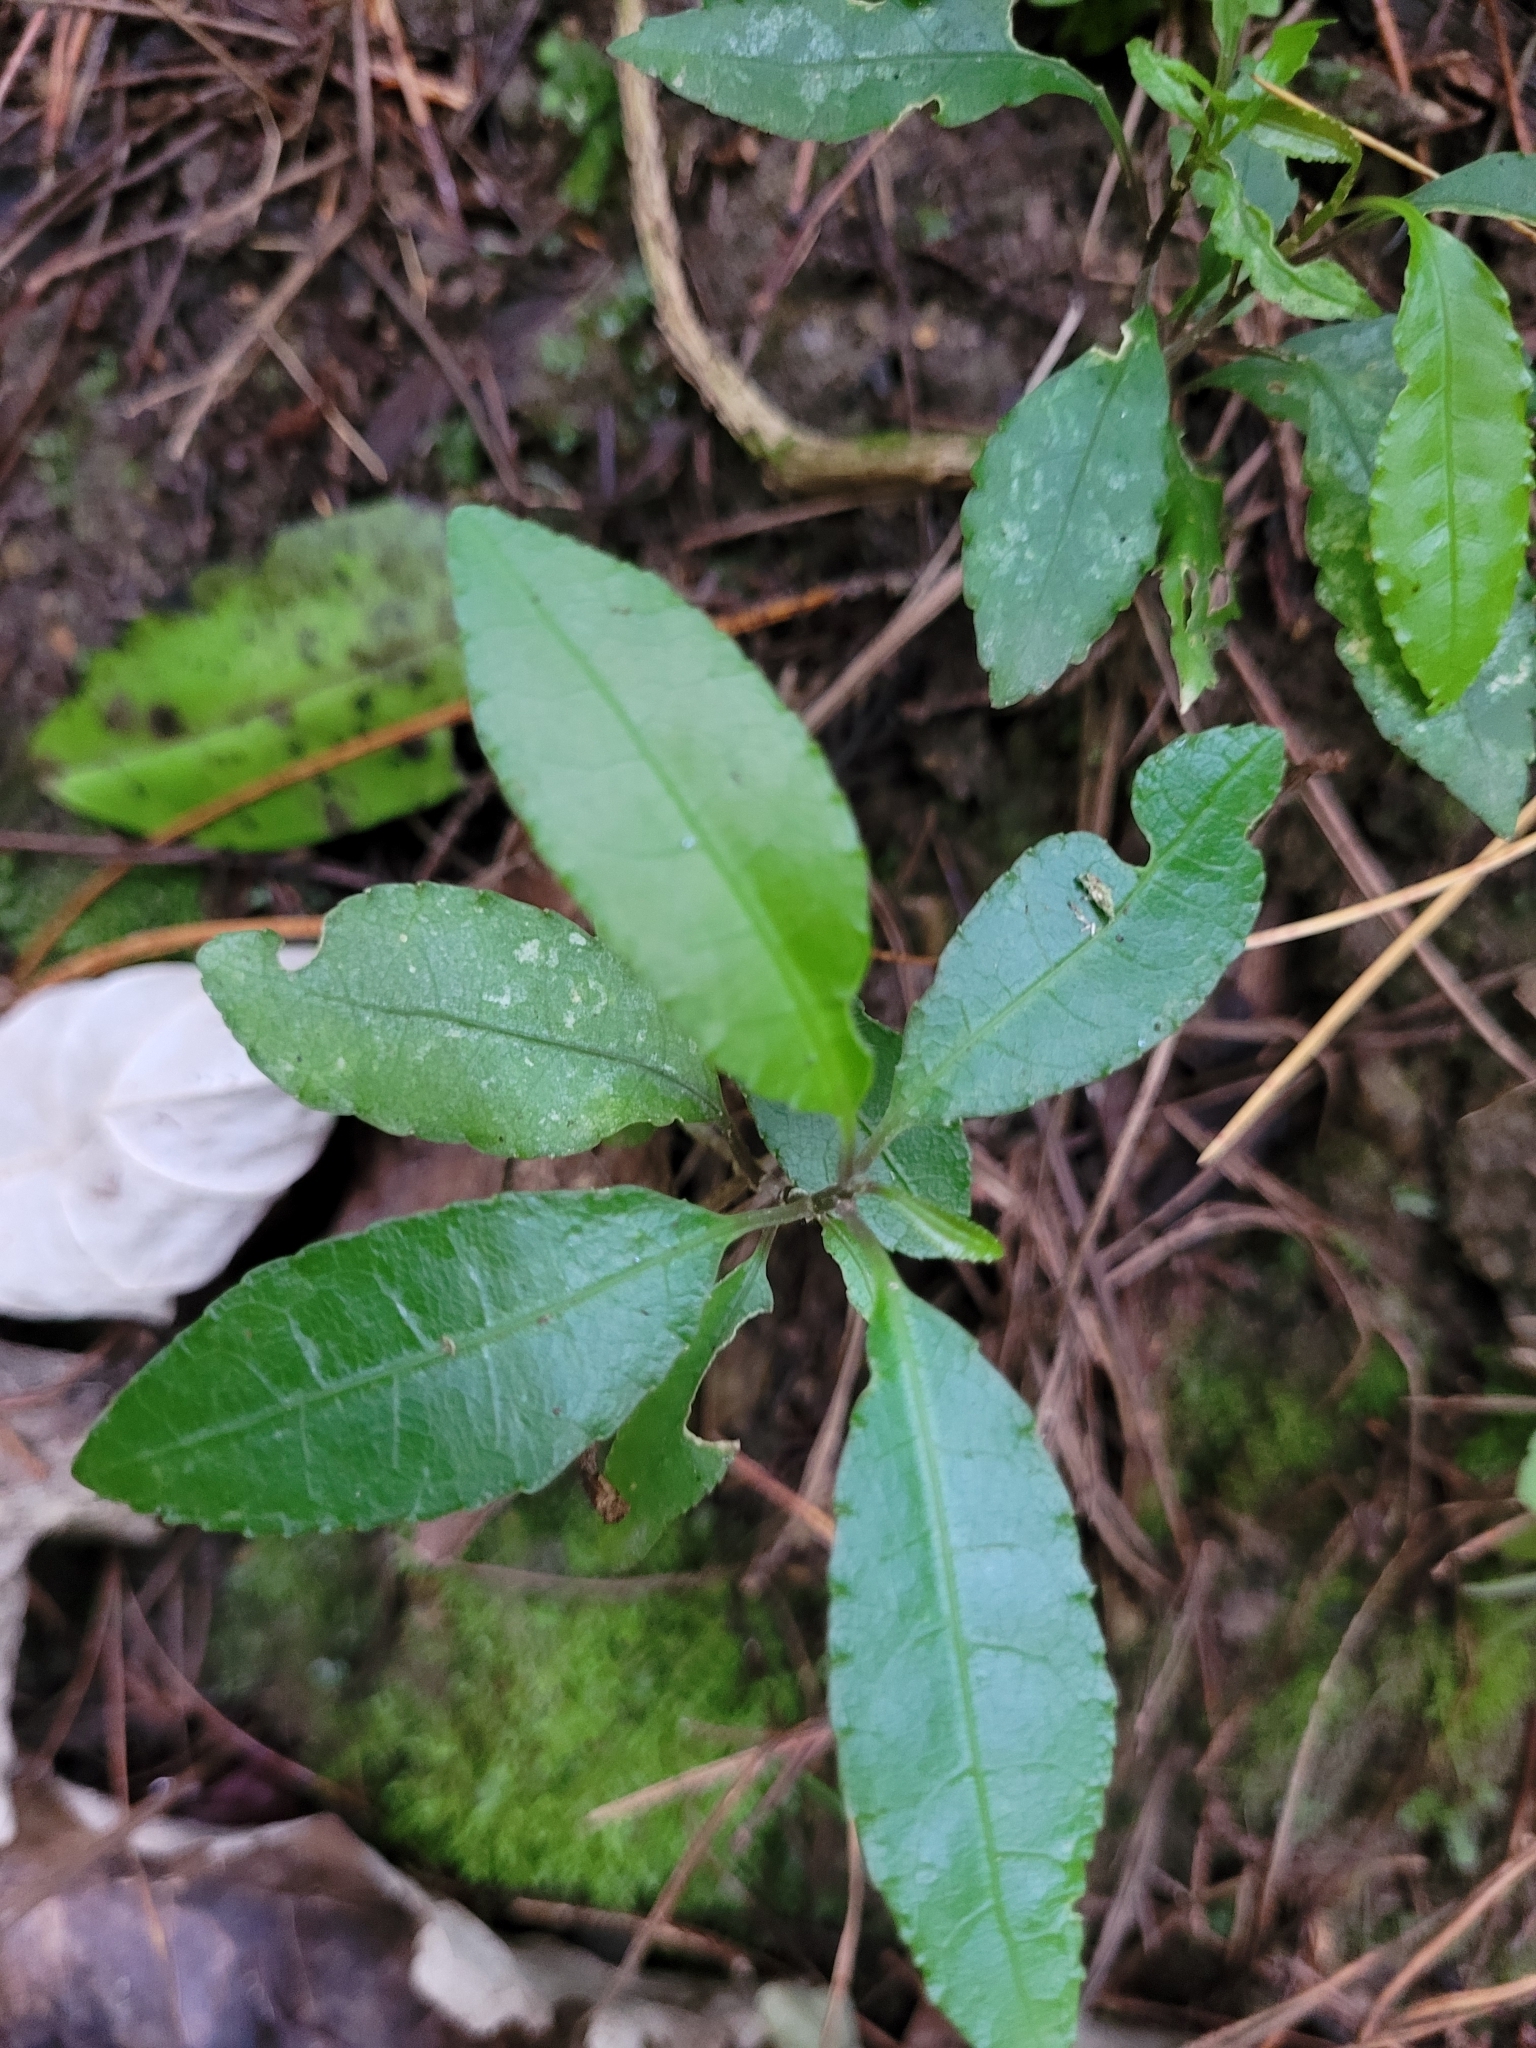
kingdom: Plantae
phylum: Tracheophyta
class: Magnoliopsida
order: Malpighiales
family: Violaceae
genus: Melicytus
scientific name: Melicytus ramiflorus
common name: Mahoe
